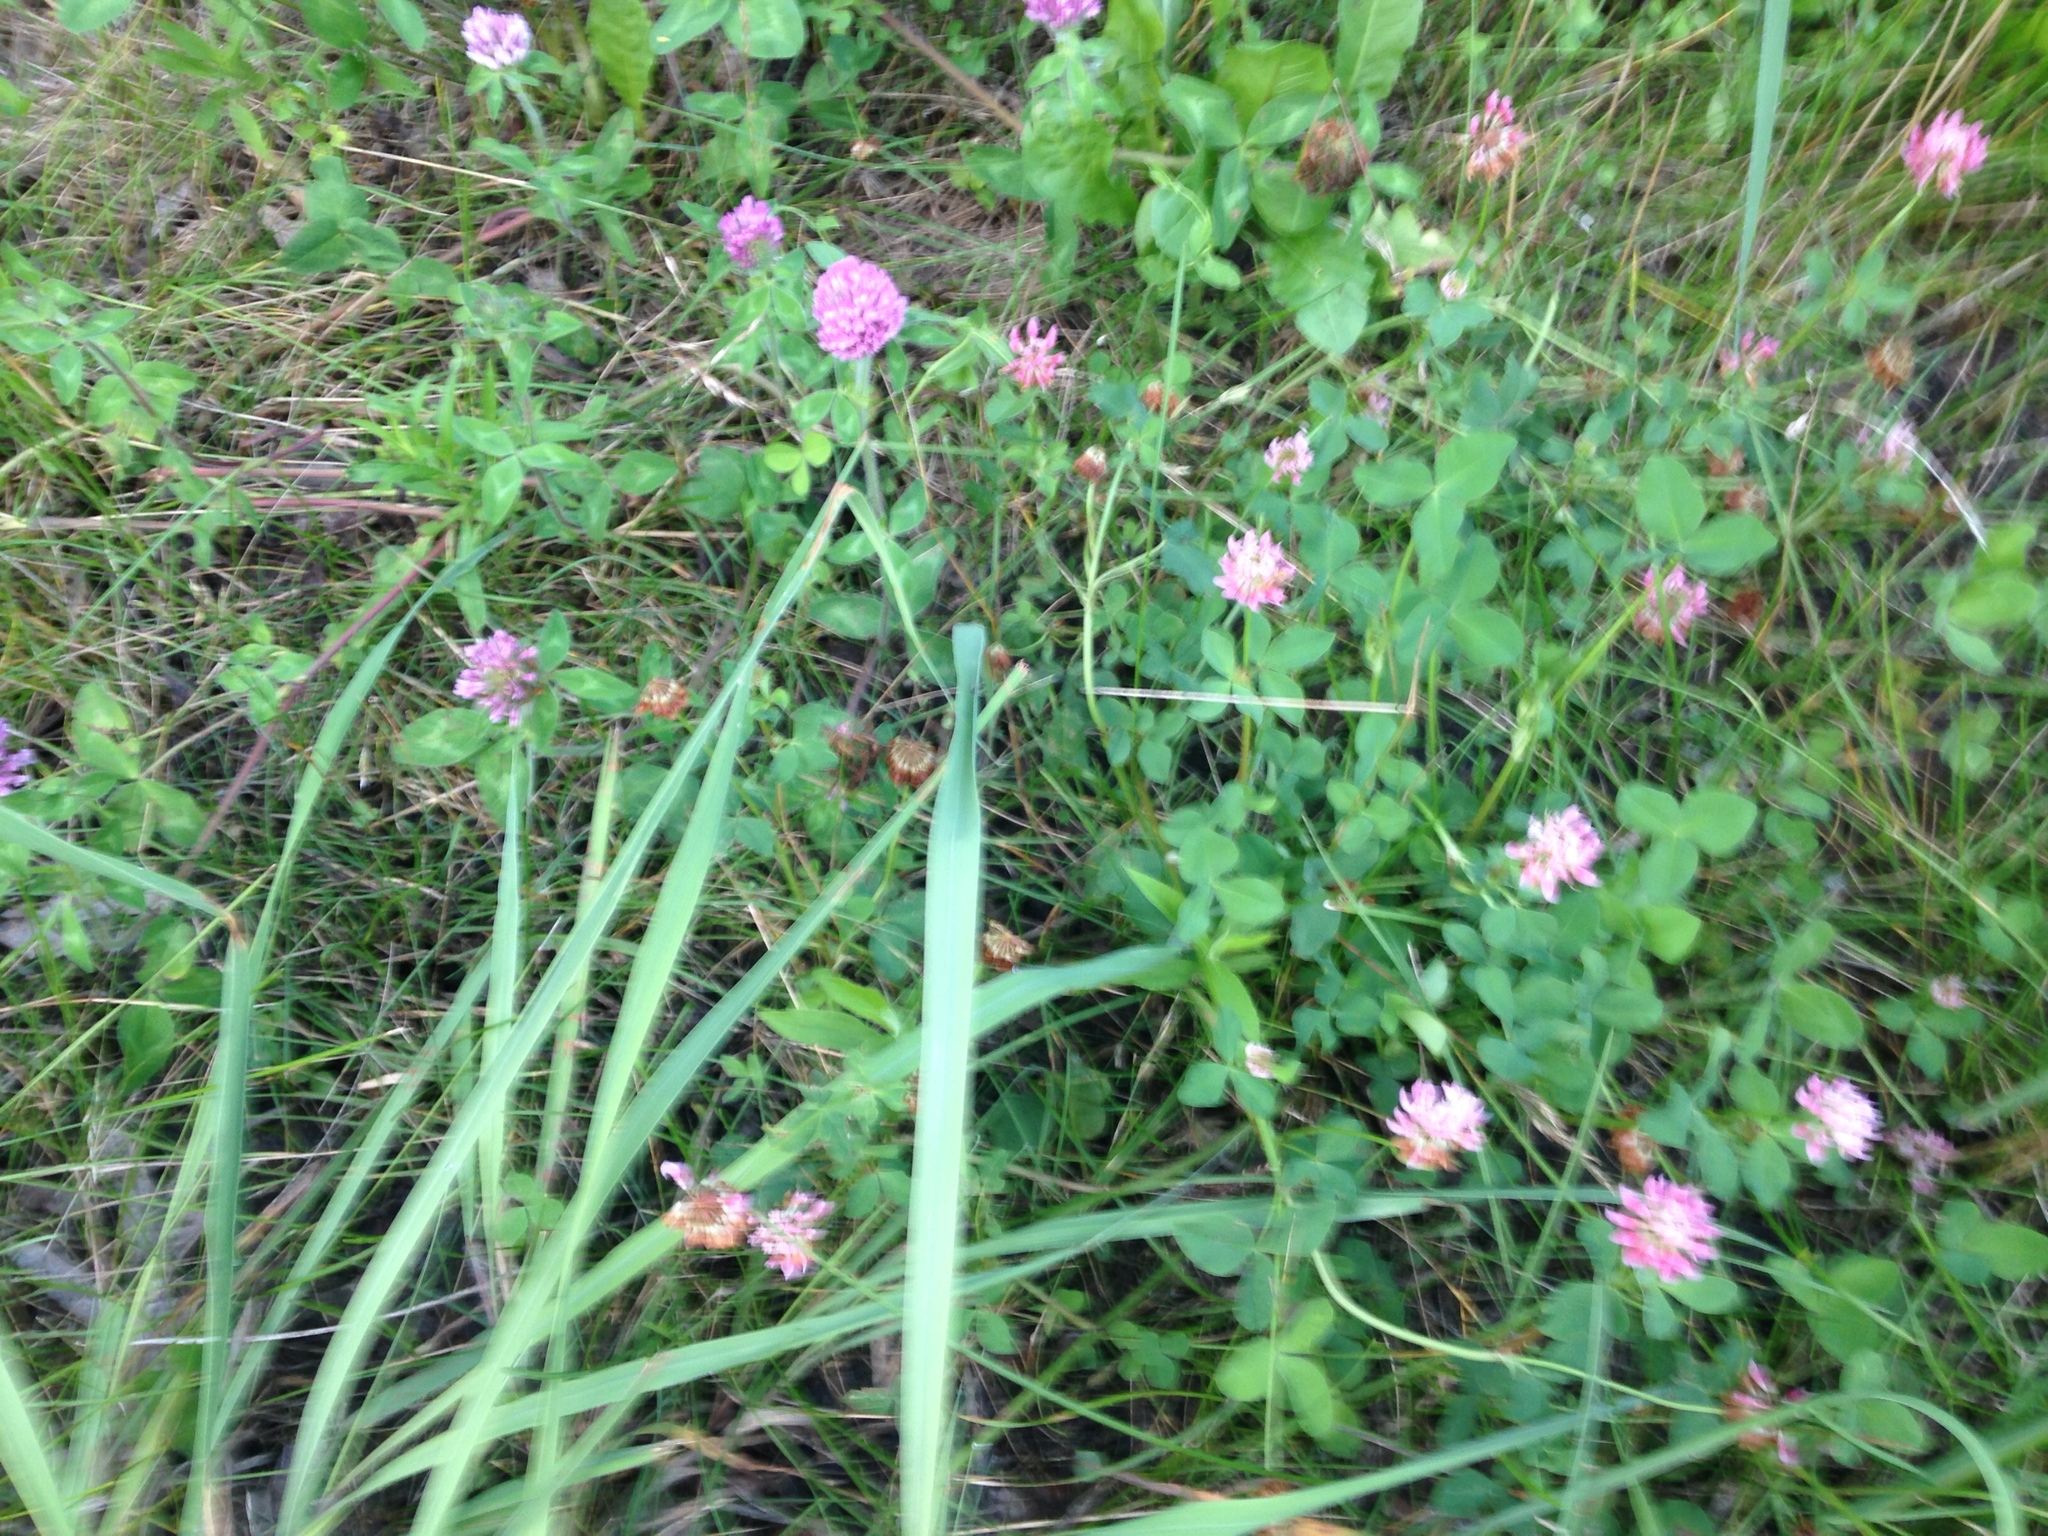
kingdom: Plantae
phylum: Tracheophyta
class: Magnoliopsida
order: Fabales
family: Fabaceae
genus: Trifolium
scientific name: Trifolium pratense
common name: Red clover
